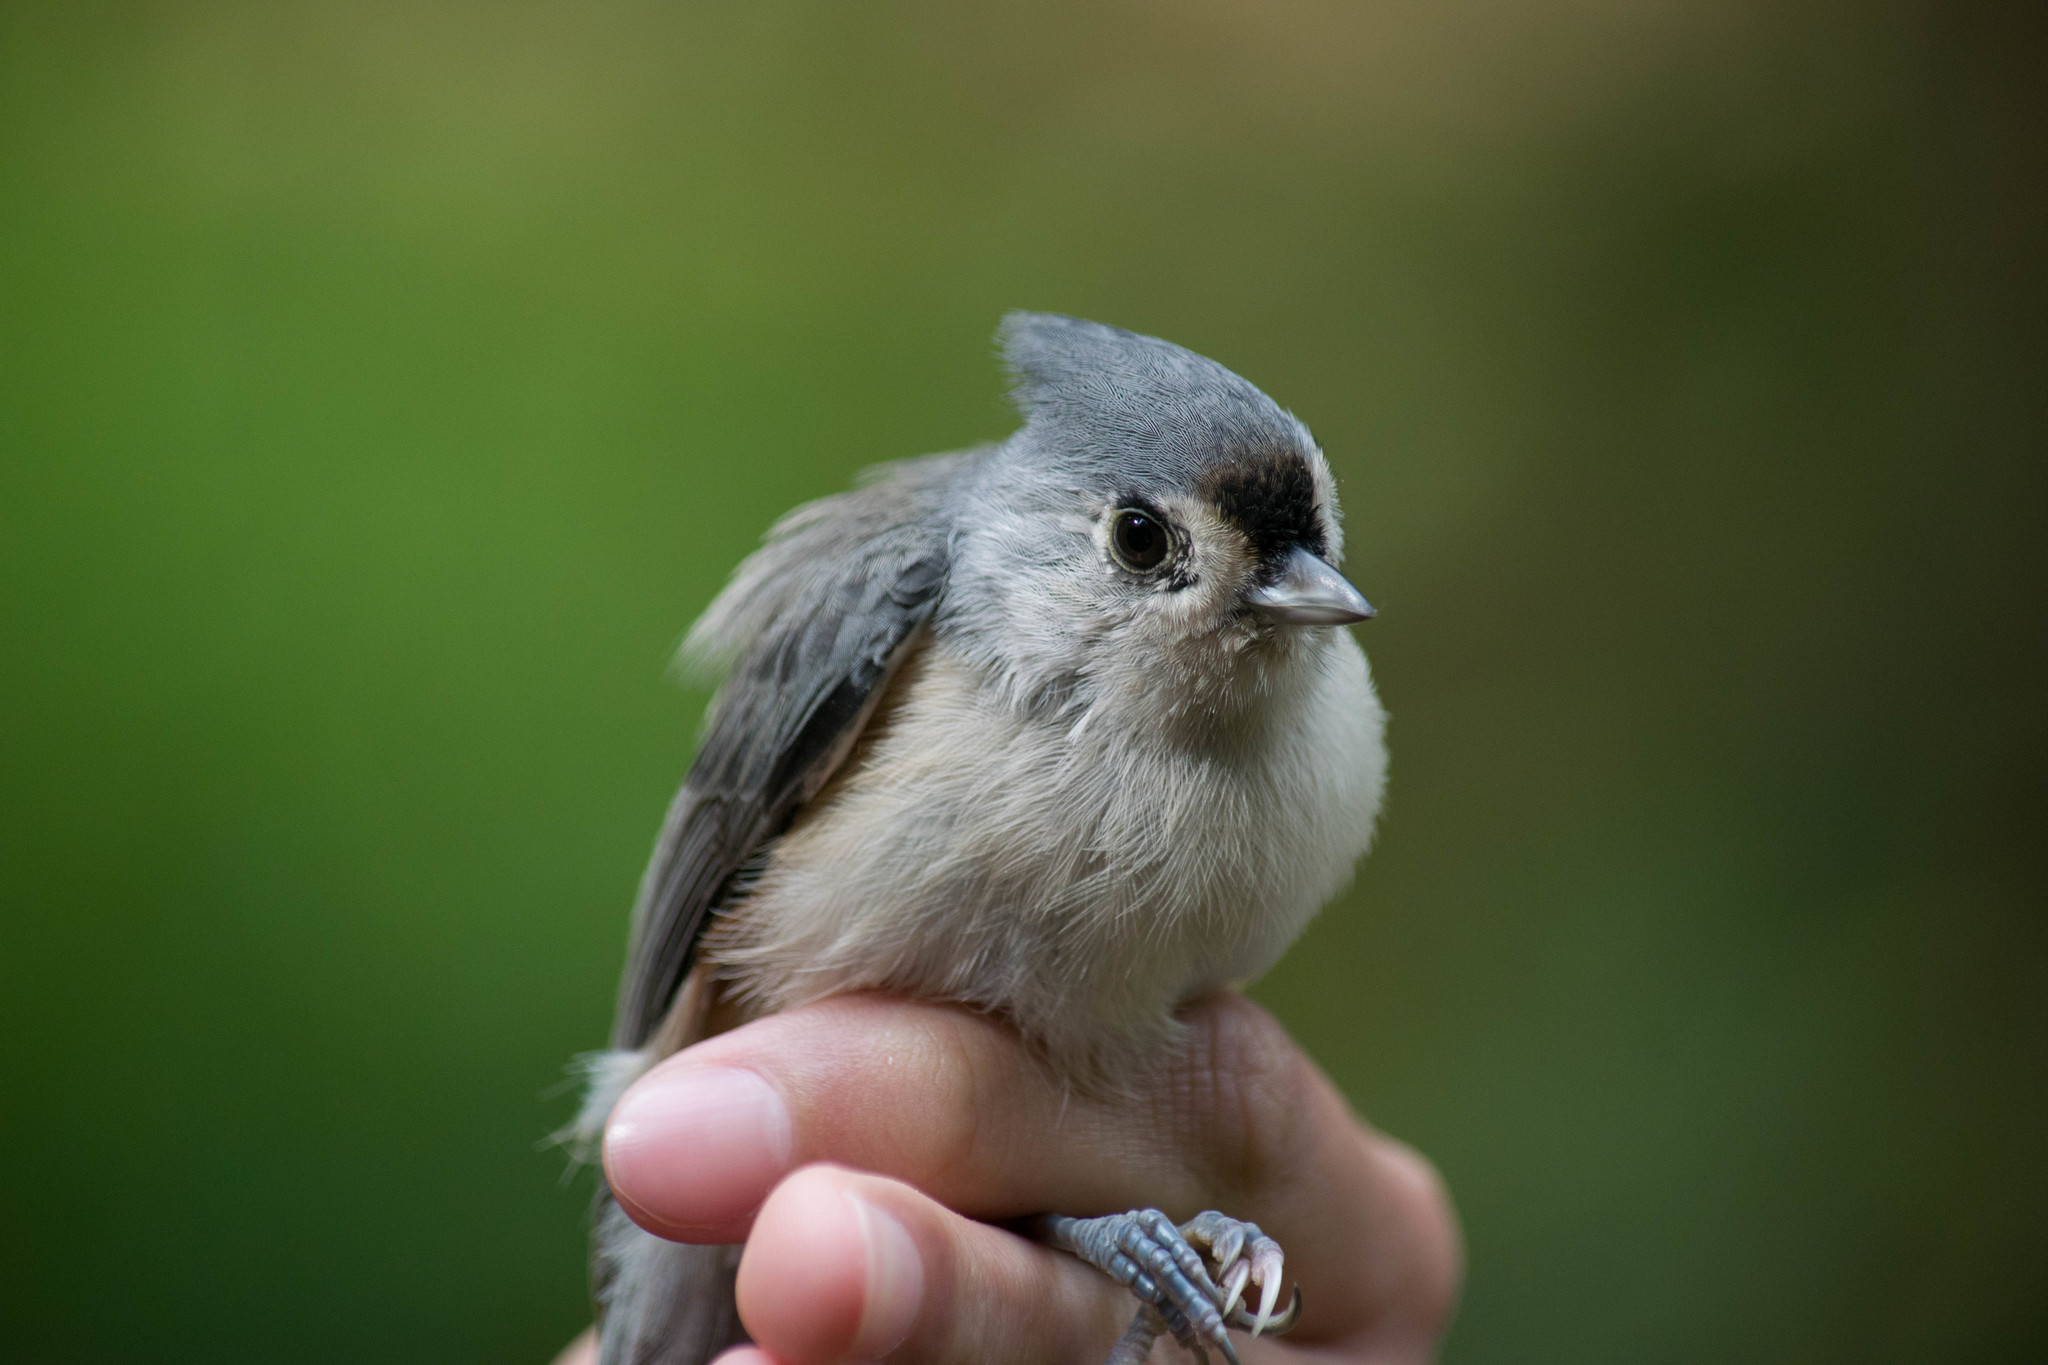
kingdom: Animalia
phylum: Chordata
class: Aves
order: Passeriformes
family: Paridae
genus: Baeolophus
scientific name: Baeolophus bicolor
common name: Tufted titmouse
